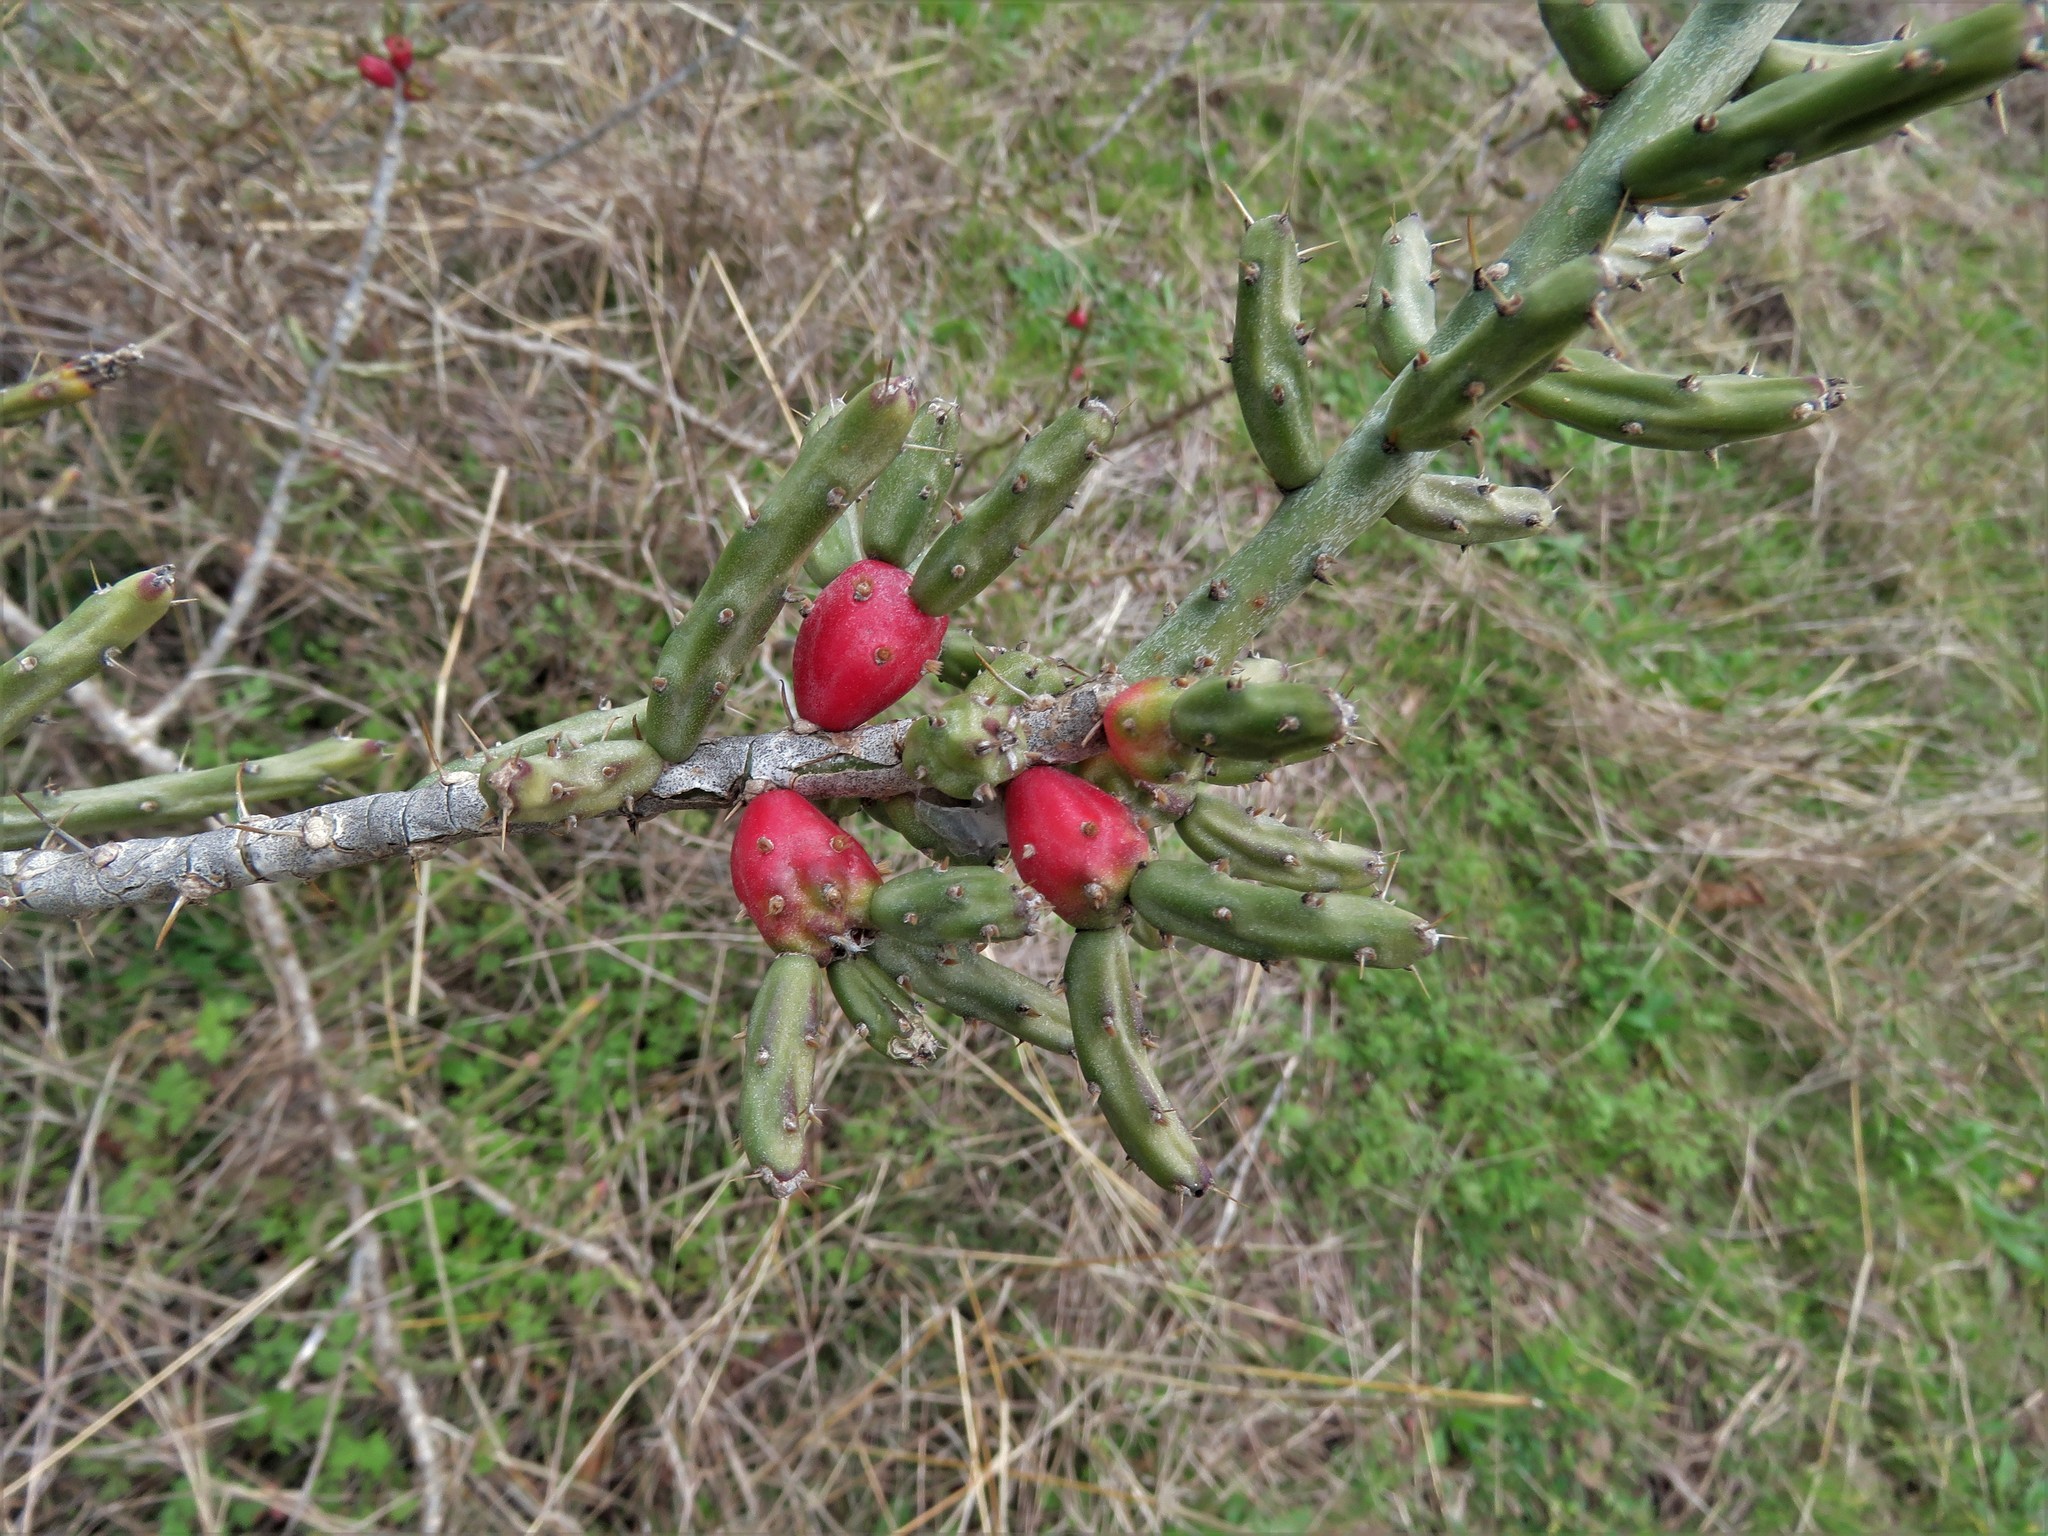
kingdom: Plantae
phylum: Tracheophyta
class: Magnoliopsida
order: Caryophyllales
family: Cactaceae
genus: Cylindropuntia
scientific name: Cylindropuntia leptocaulis
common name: Christmas cactus
